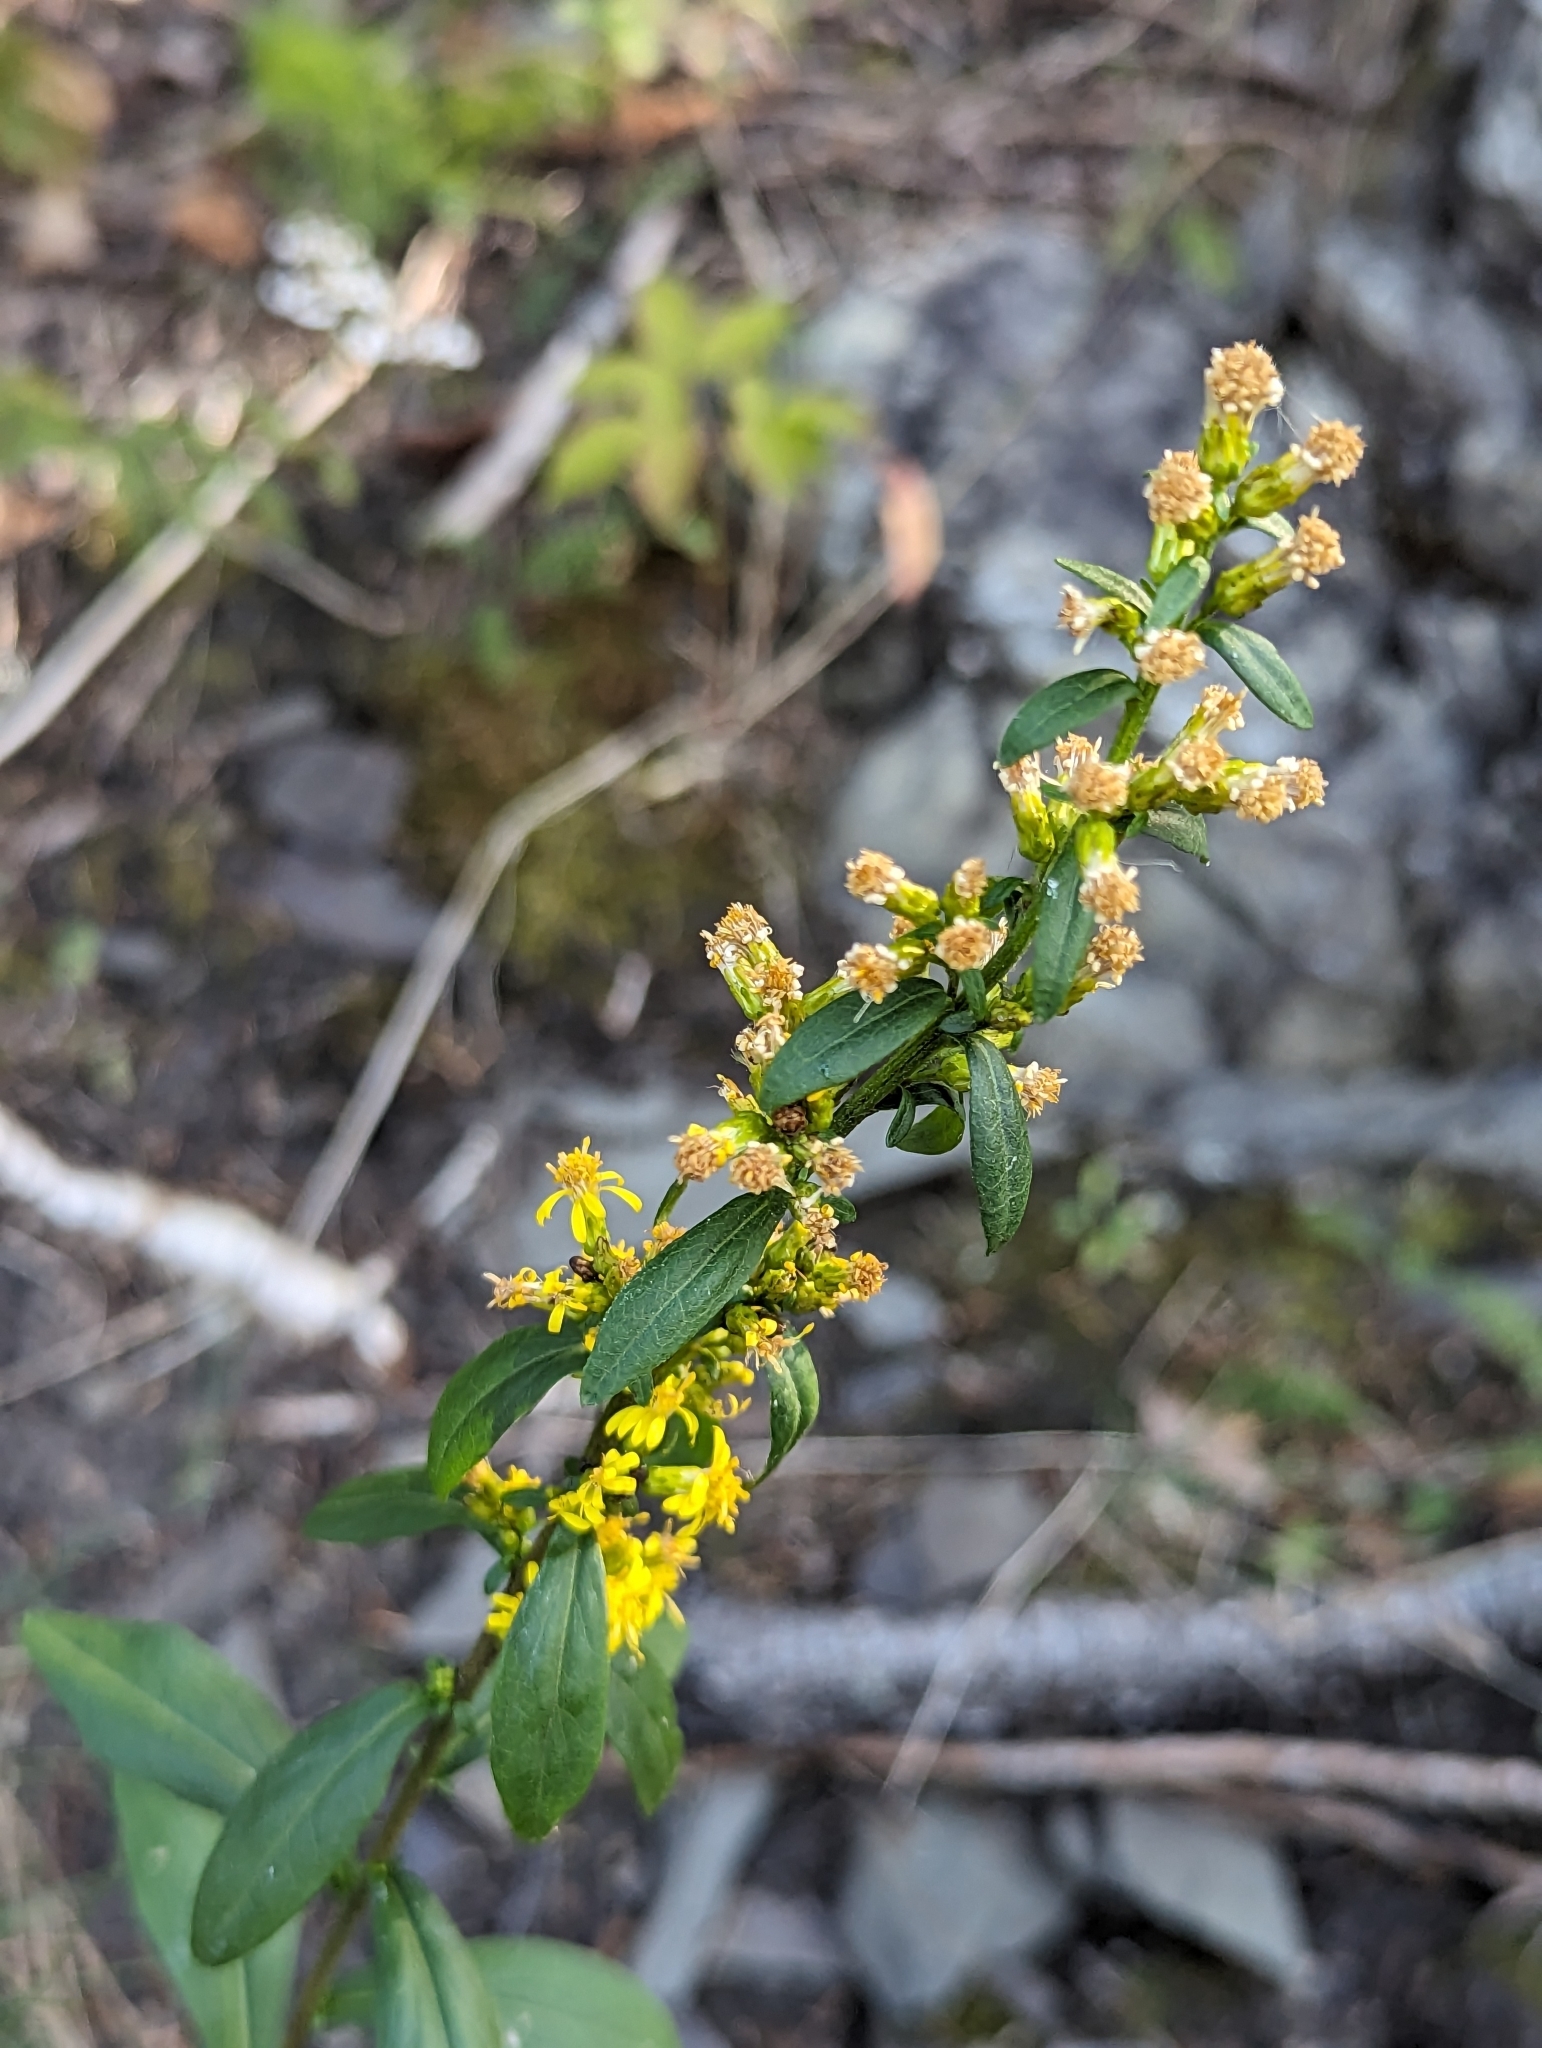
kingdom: Plantae
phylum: Tracheophyta
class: Magnoliopsida
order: Asterales
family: Asteraceae
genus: Solidago
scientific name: Solidago hispida
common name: Hairy goldenrod
